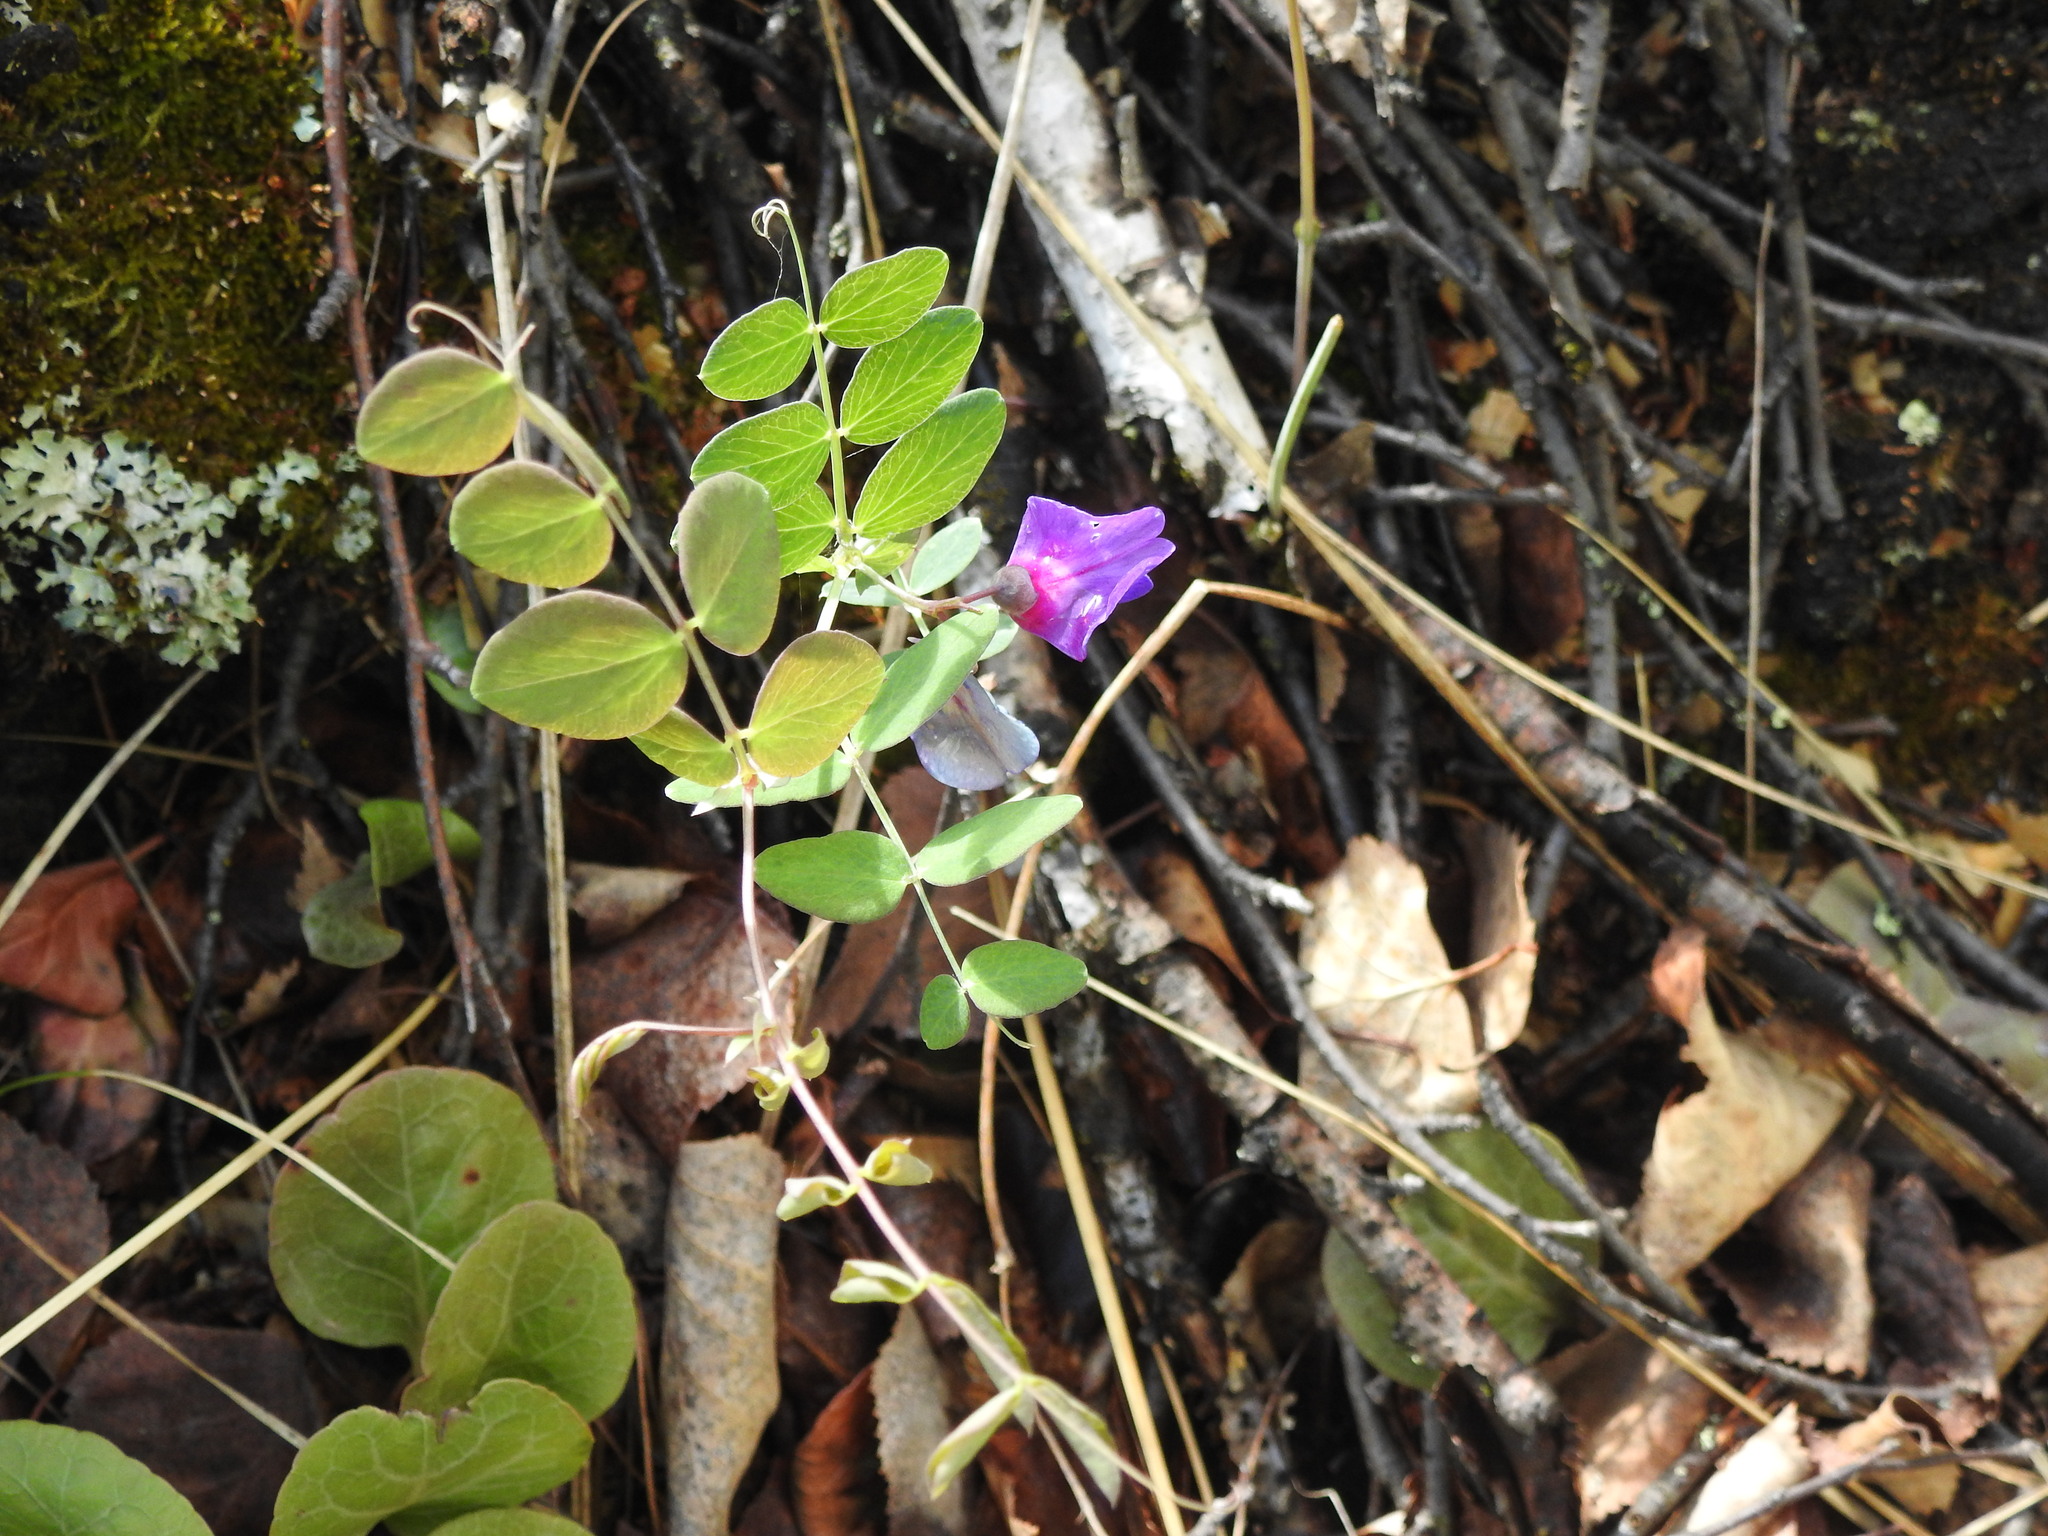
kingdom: Plantae
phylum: Tracheophyta
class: Magnoliopsida
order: Fabales
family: Fabaceae
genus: Lathyrus
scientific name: Lathyrus humilis
